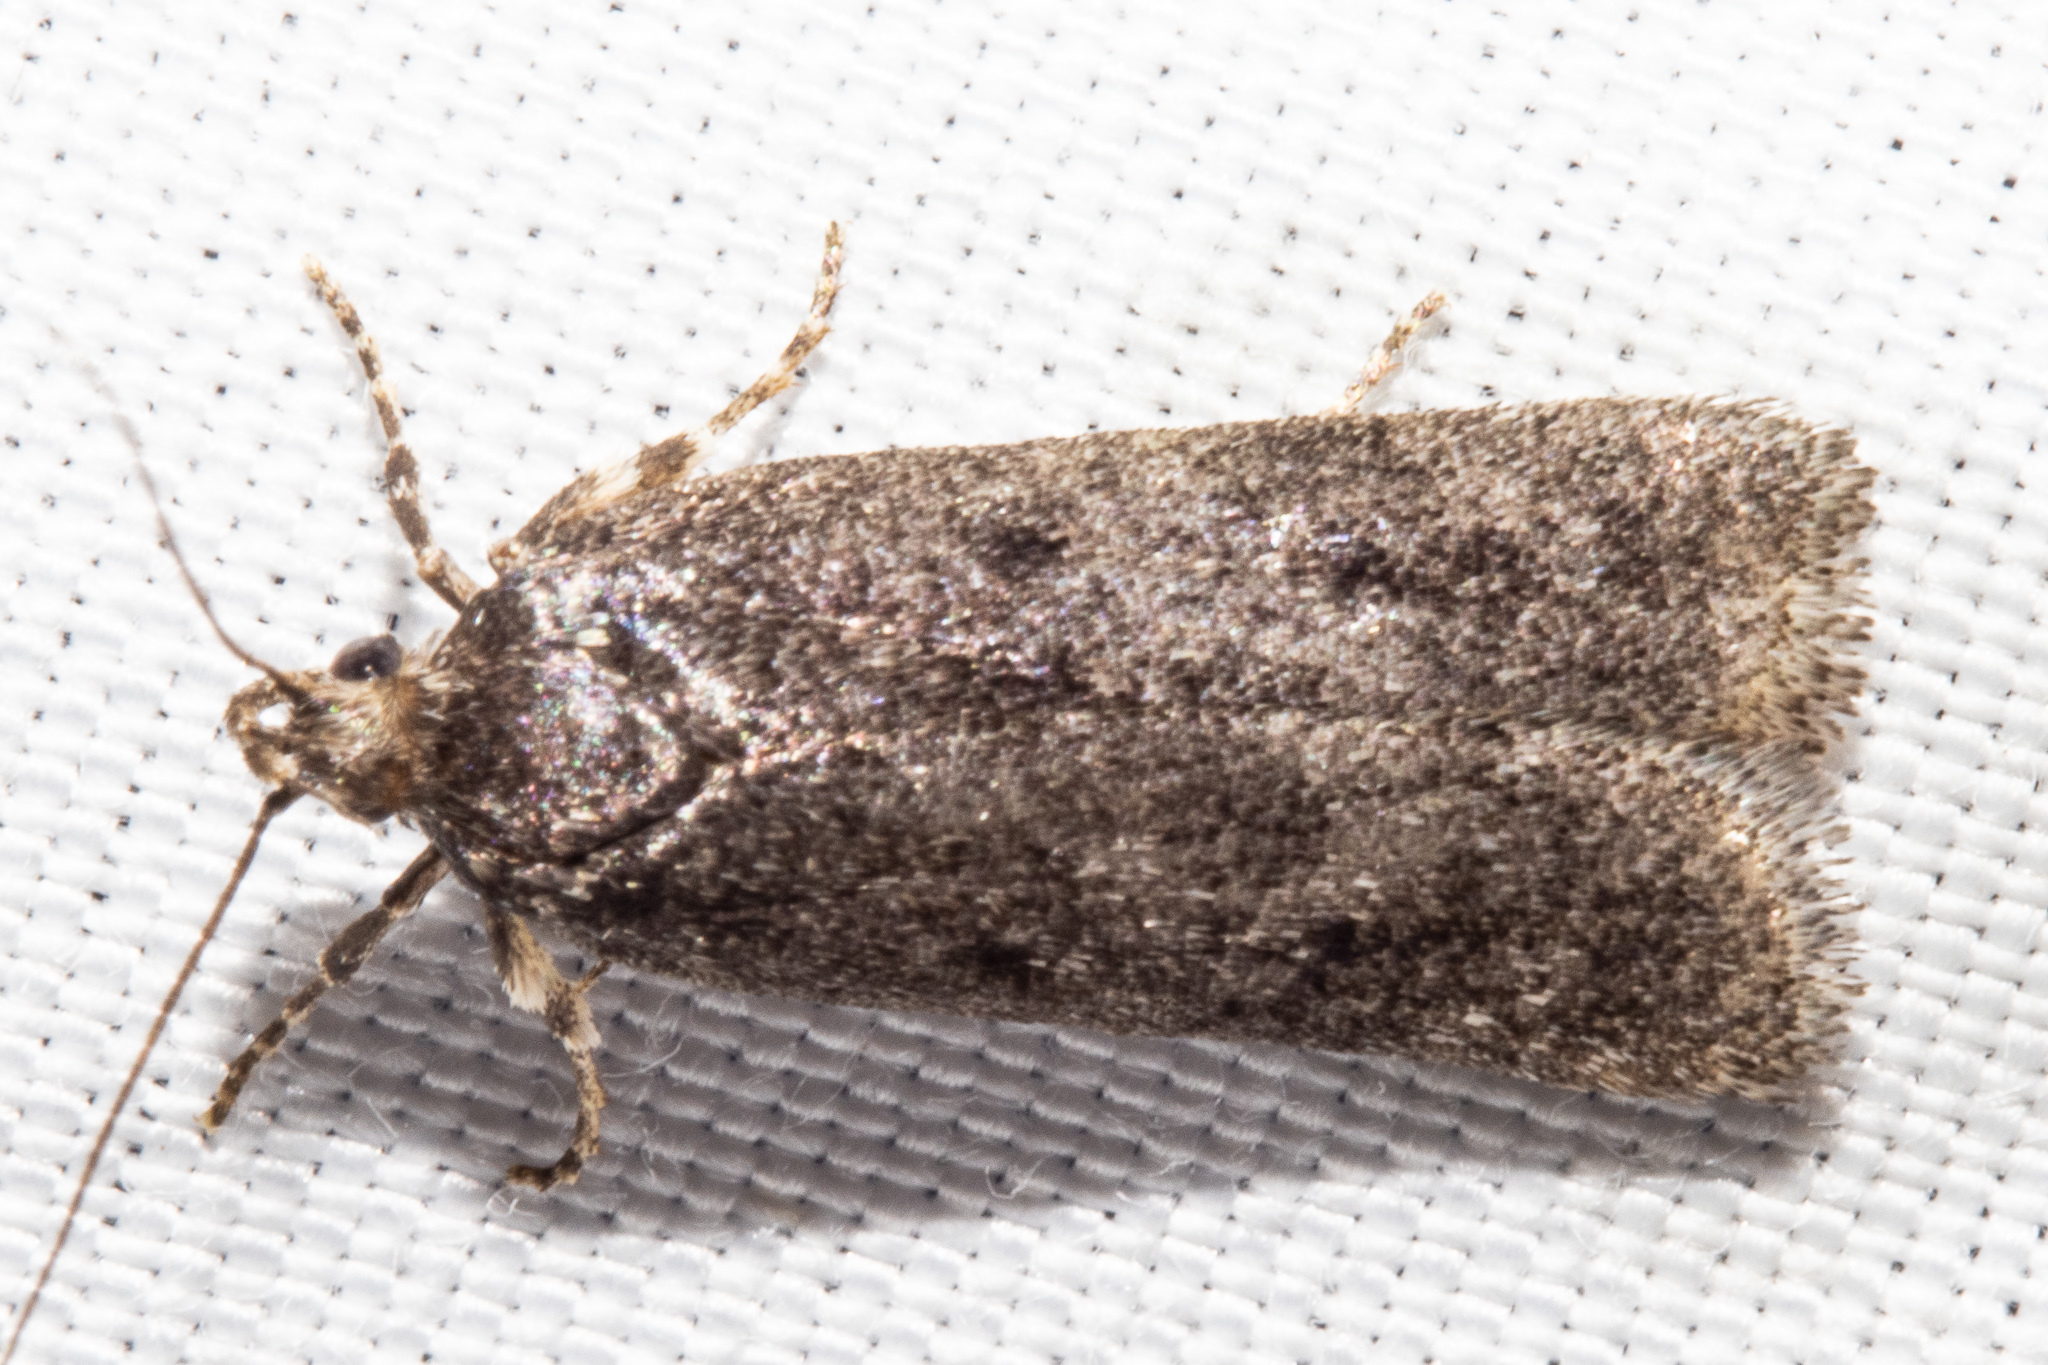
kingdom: Animalia
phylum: Arthropoda
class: Insecta
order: Lepidoptera
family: Depressariidae
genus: Phaeosaces
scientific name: Phaeosaces apocrypta
